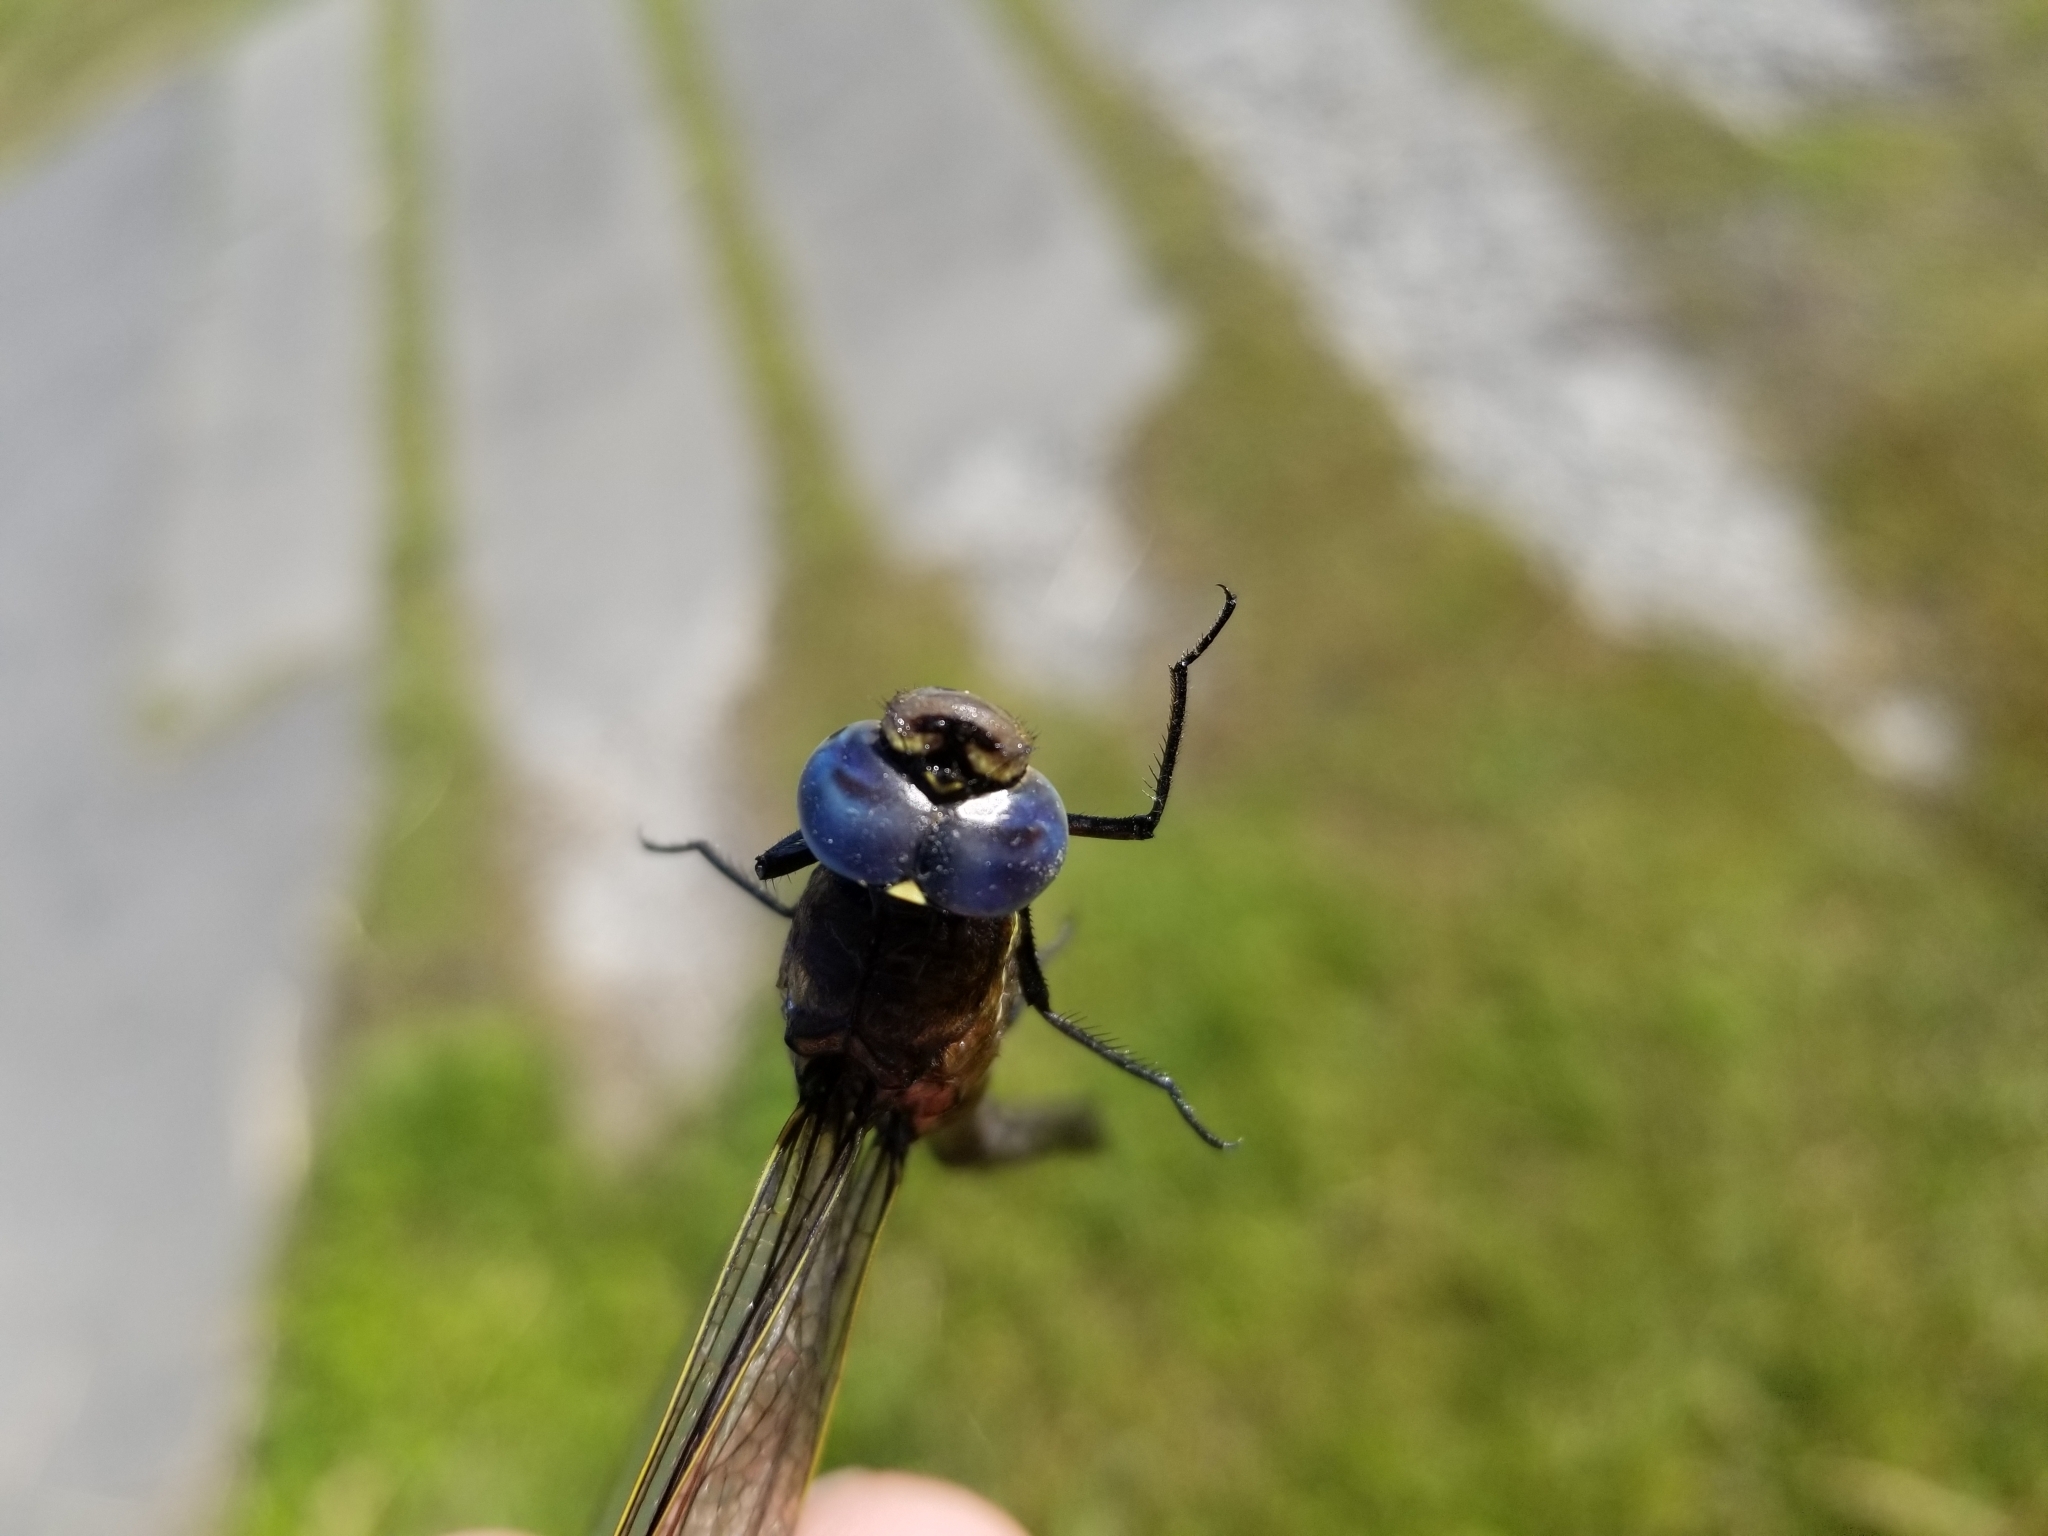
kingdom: Animalia
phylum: Arthropoda
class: Insecta
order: Odonata
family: Aeshnidae
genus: Aeshna
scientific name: Aeshna interrupta
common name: Variable darner
